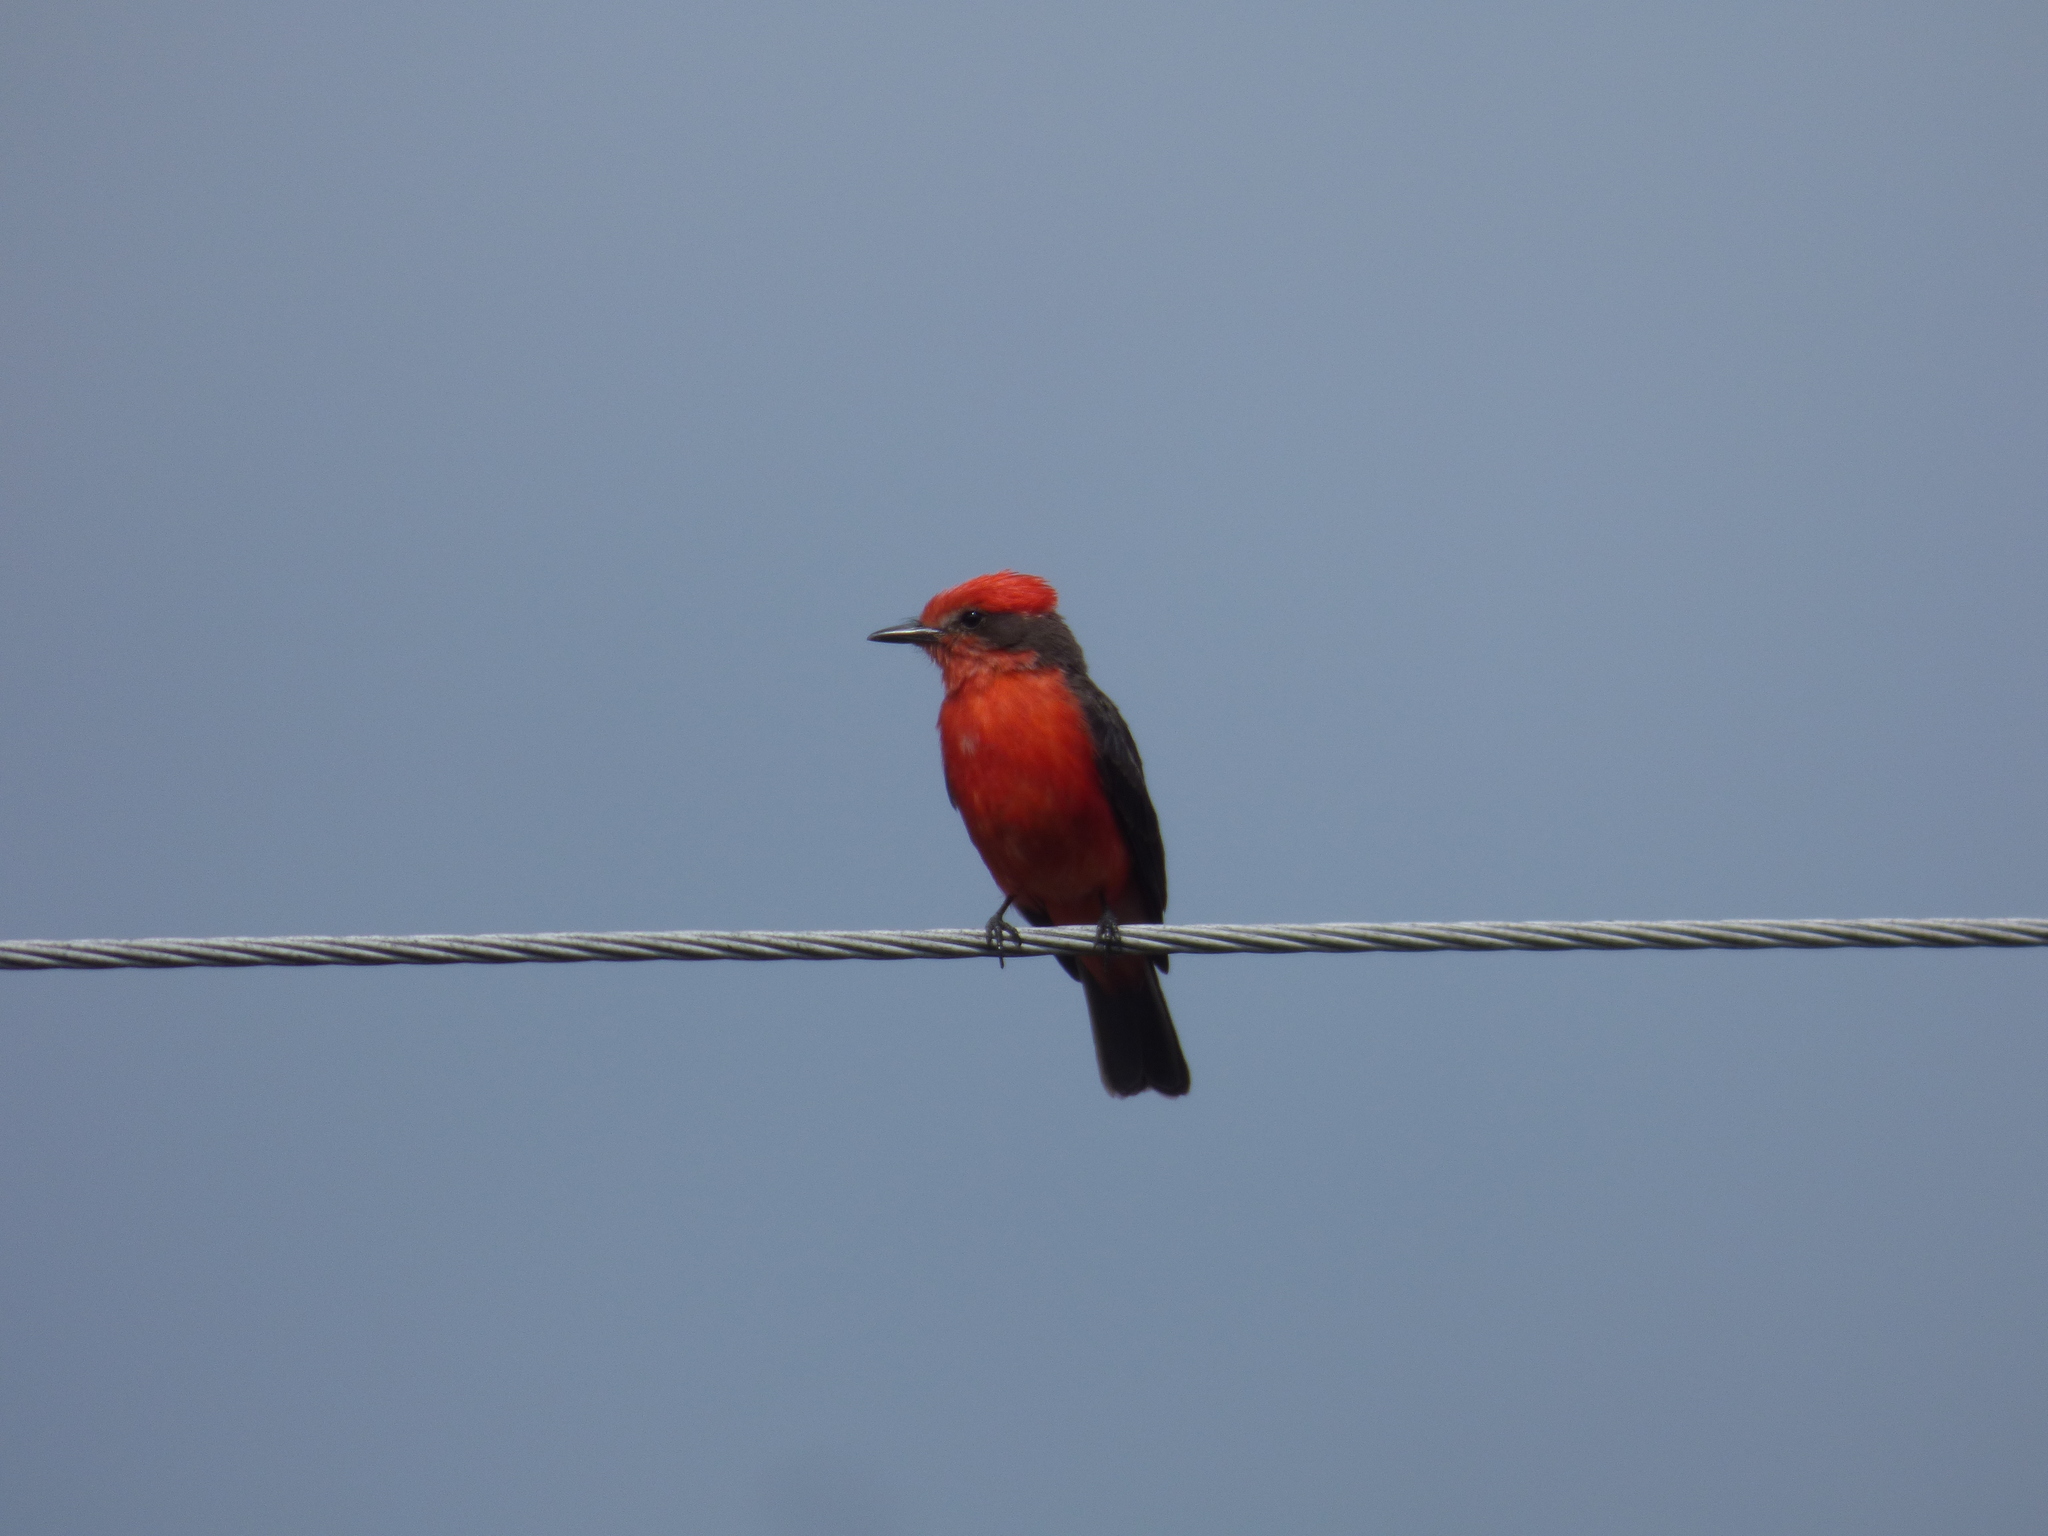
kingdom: Animalia
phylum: Chordata
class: Aves
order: Passeriformes
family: Tyrannidae
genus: Pyrocephalus
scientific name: Pyrocephalus rubinus
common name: Vermilion flycatcher
